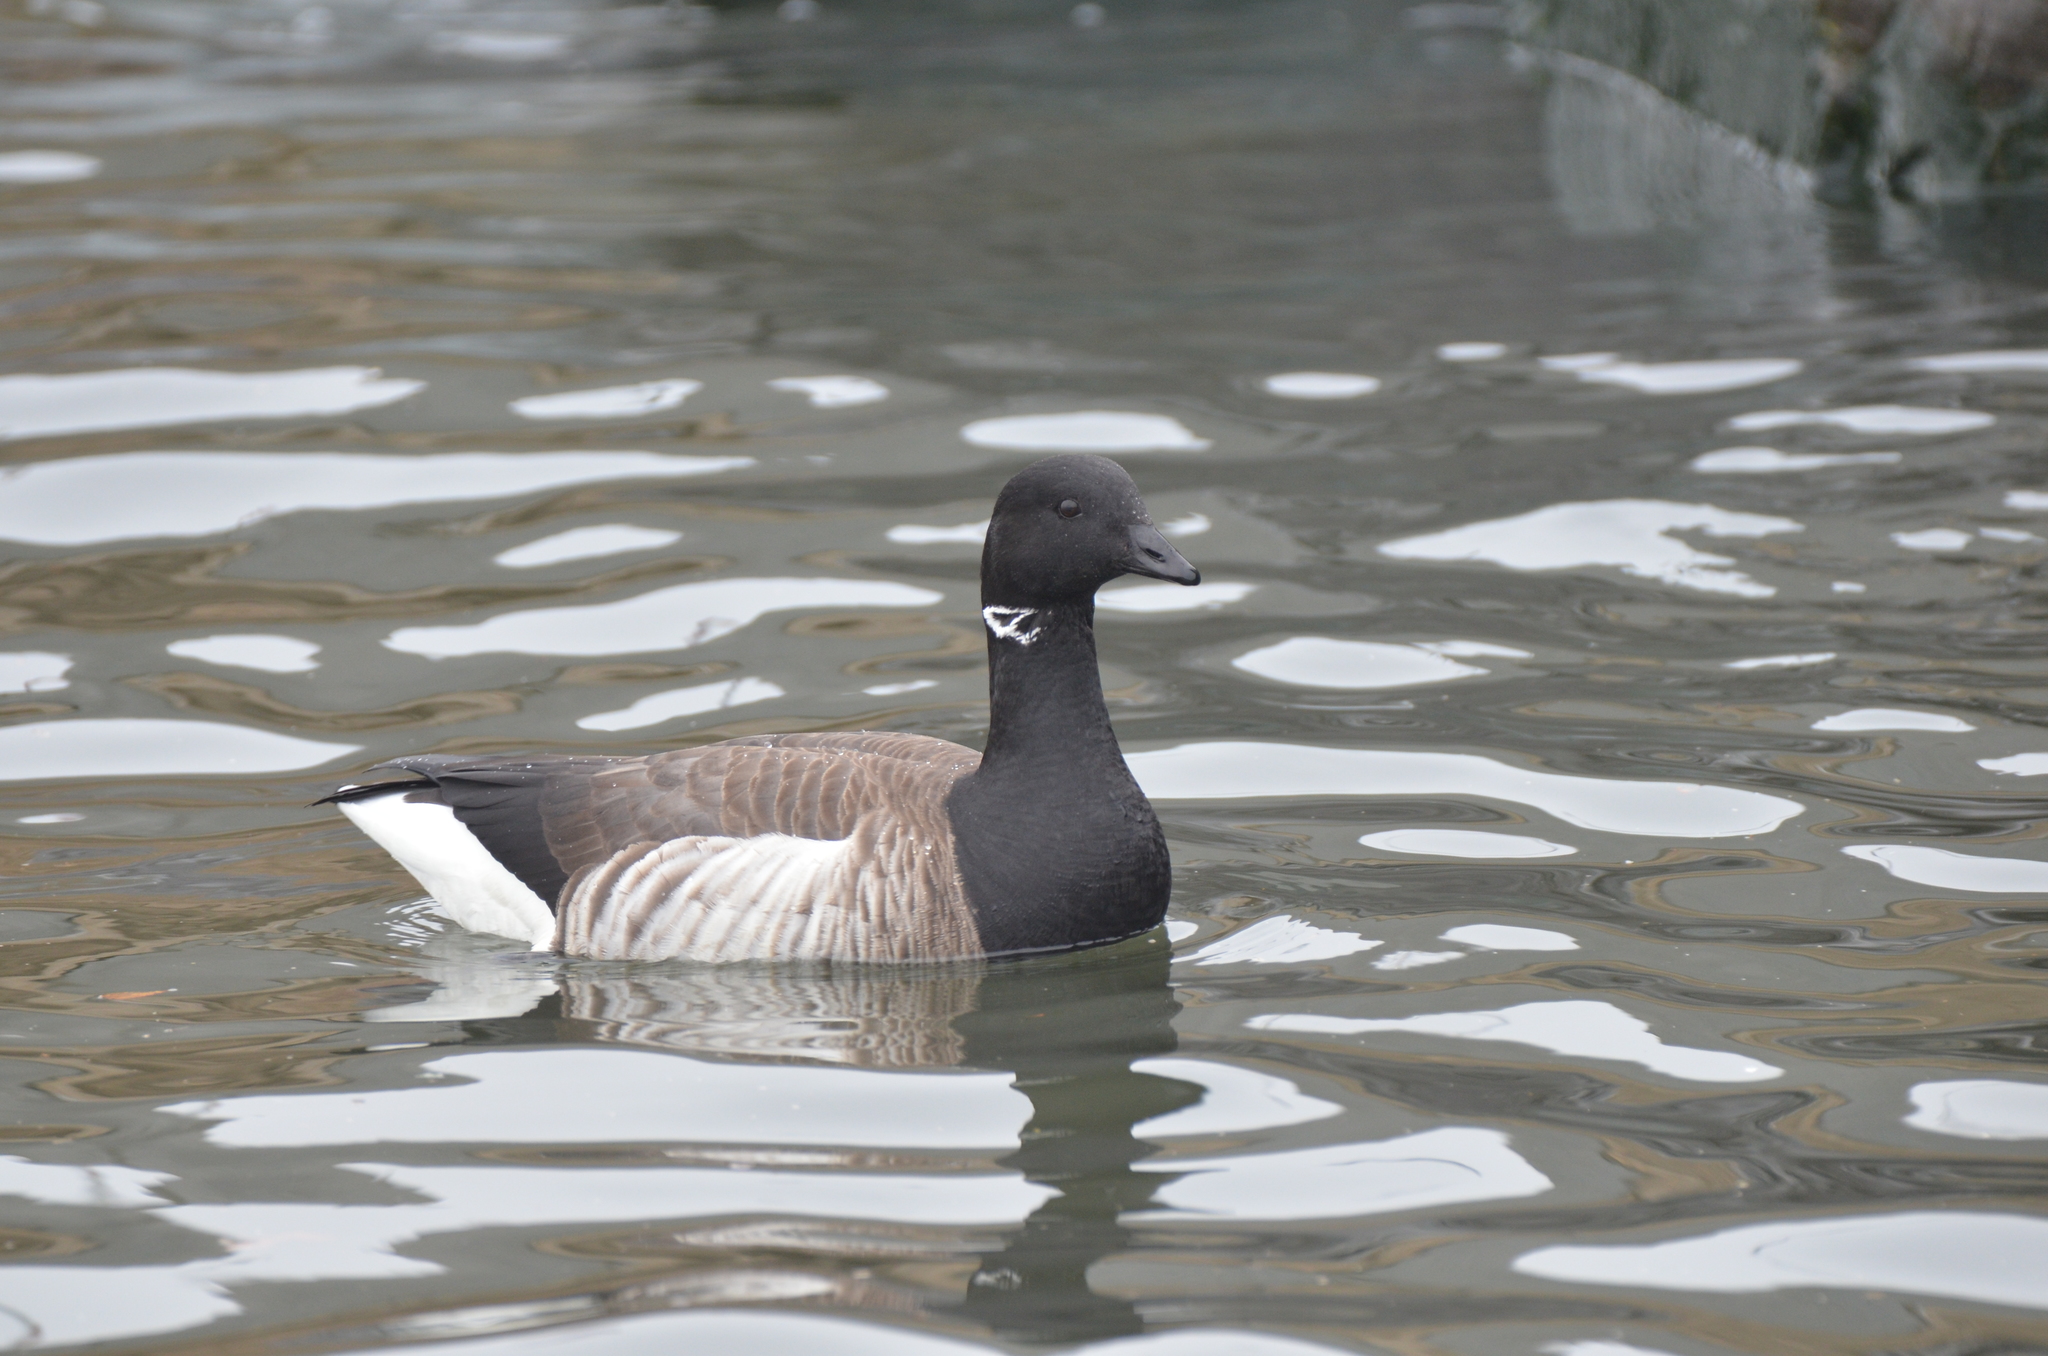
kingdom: Animalia
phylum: Chordata
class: Aves
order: Anseriformes
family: Anatidae
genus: Branta
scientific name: Branta bernicla
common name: Brant goose
